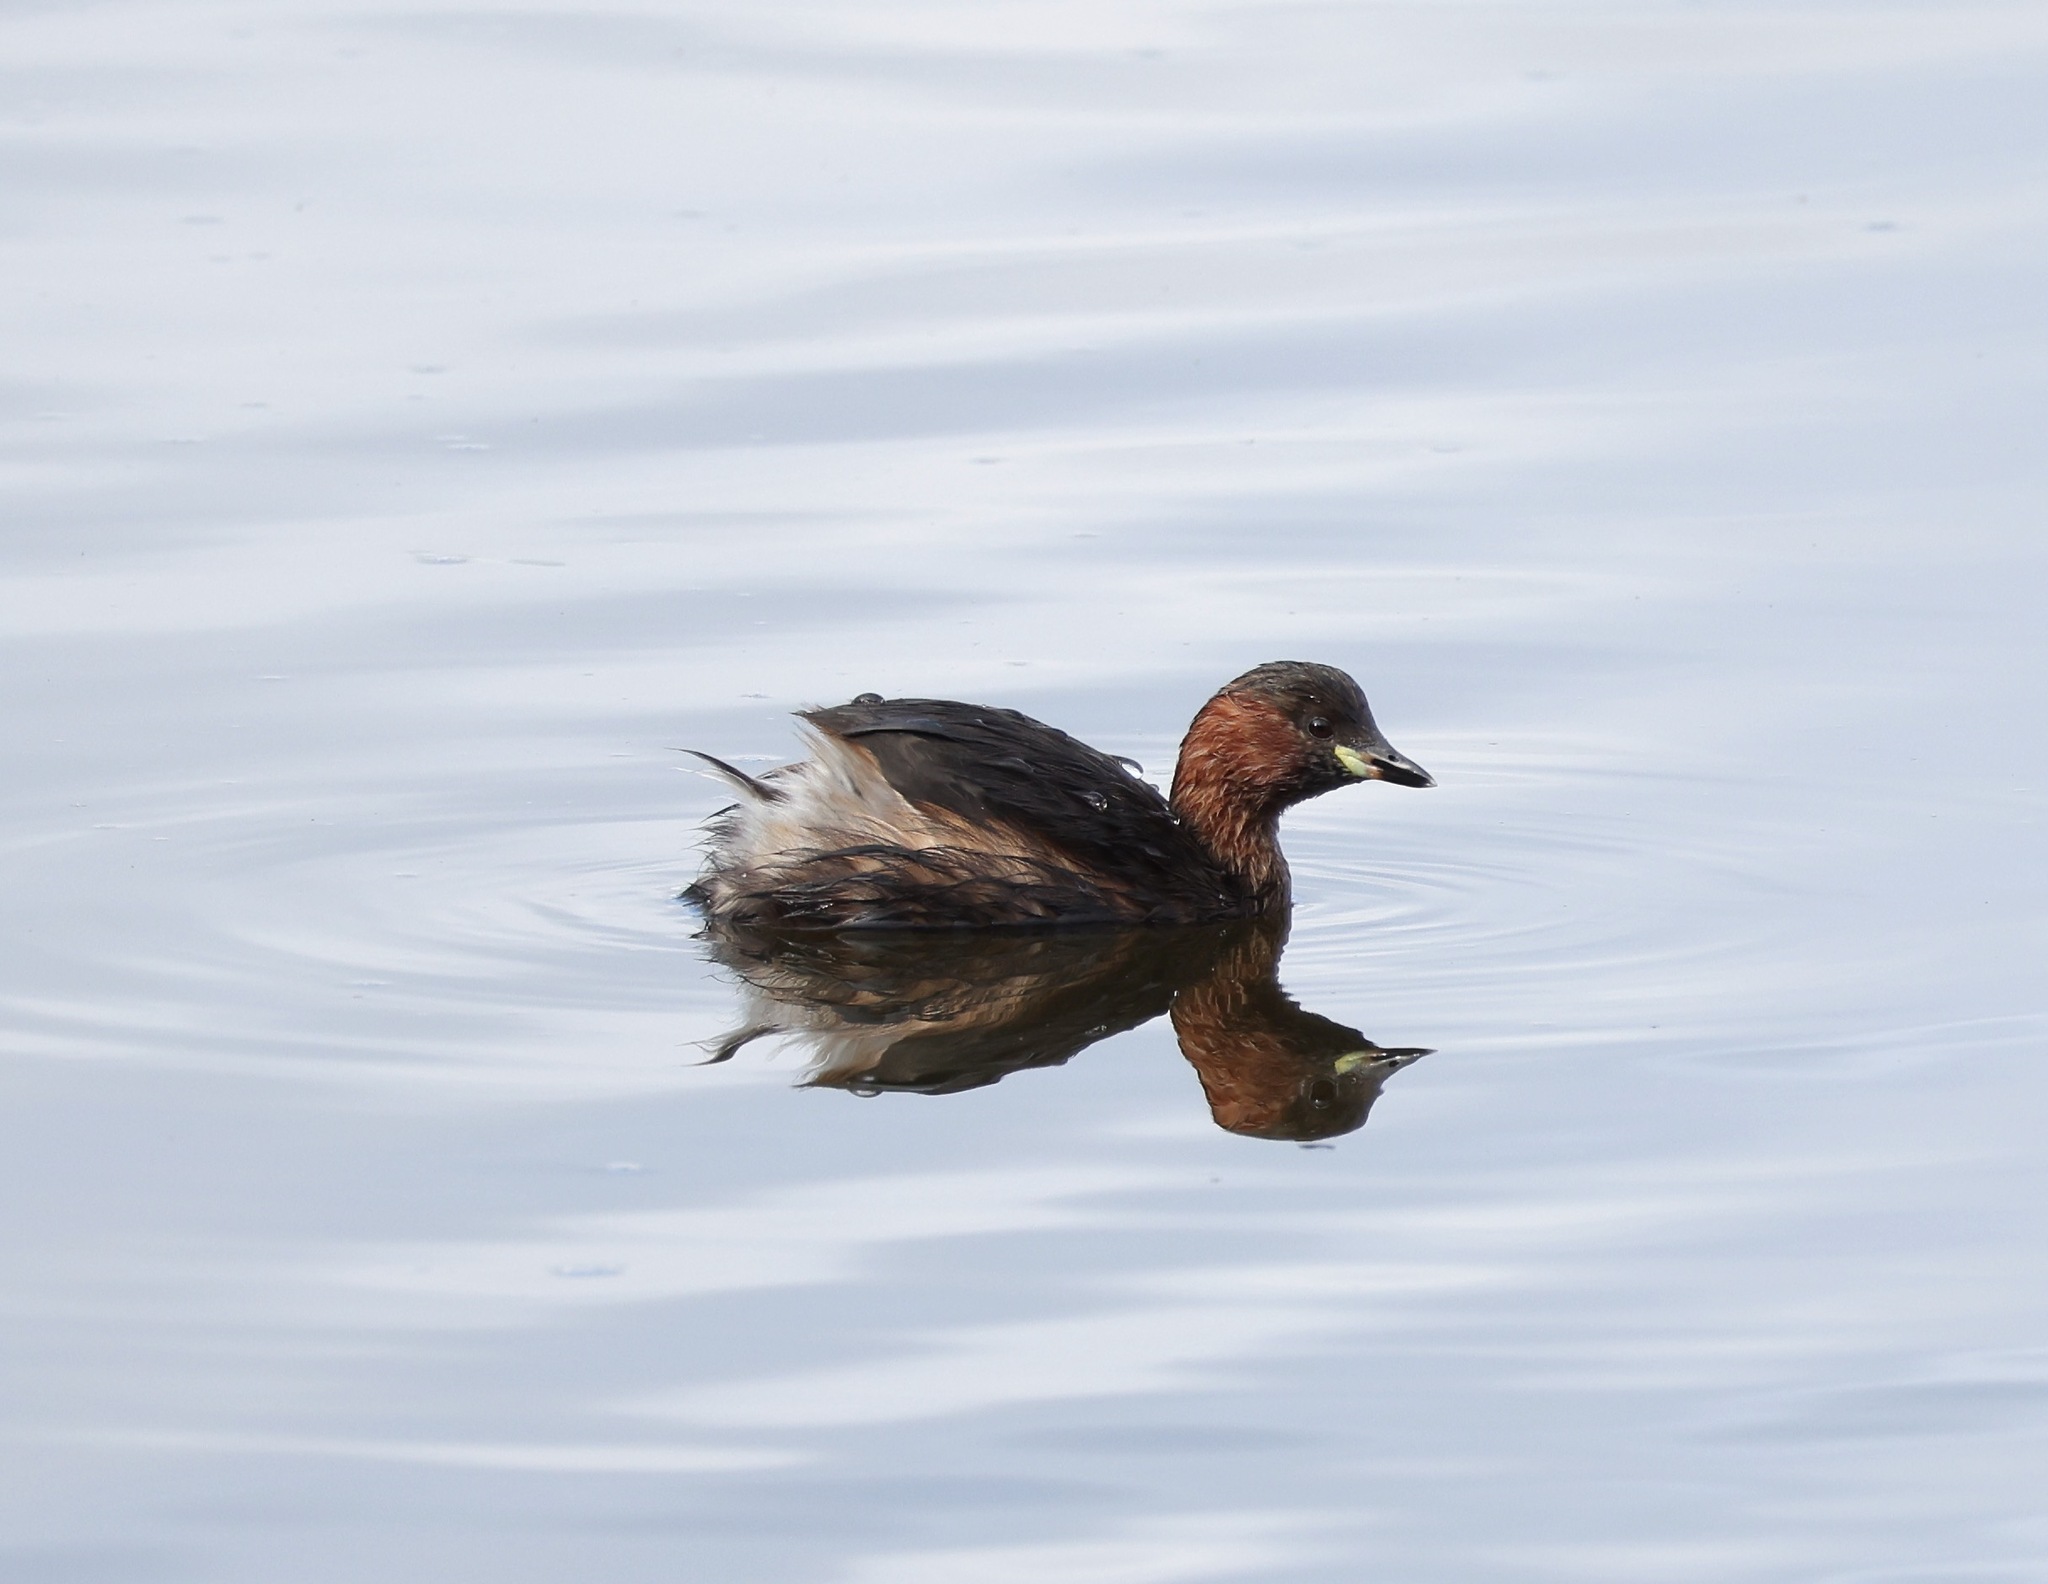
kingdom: Animalia
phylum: Chordata
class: Aves
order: Podicipediformes
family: Podicipedidae
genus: Tachybaptus
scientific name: Tachybaptus ruficollis
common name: Little grebe
